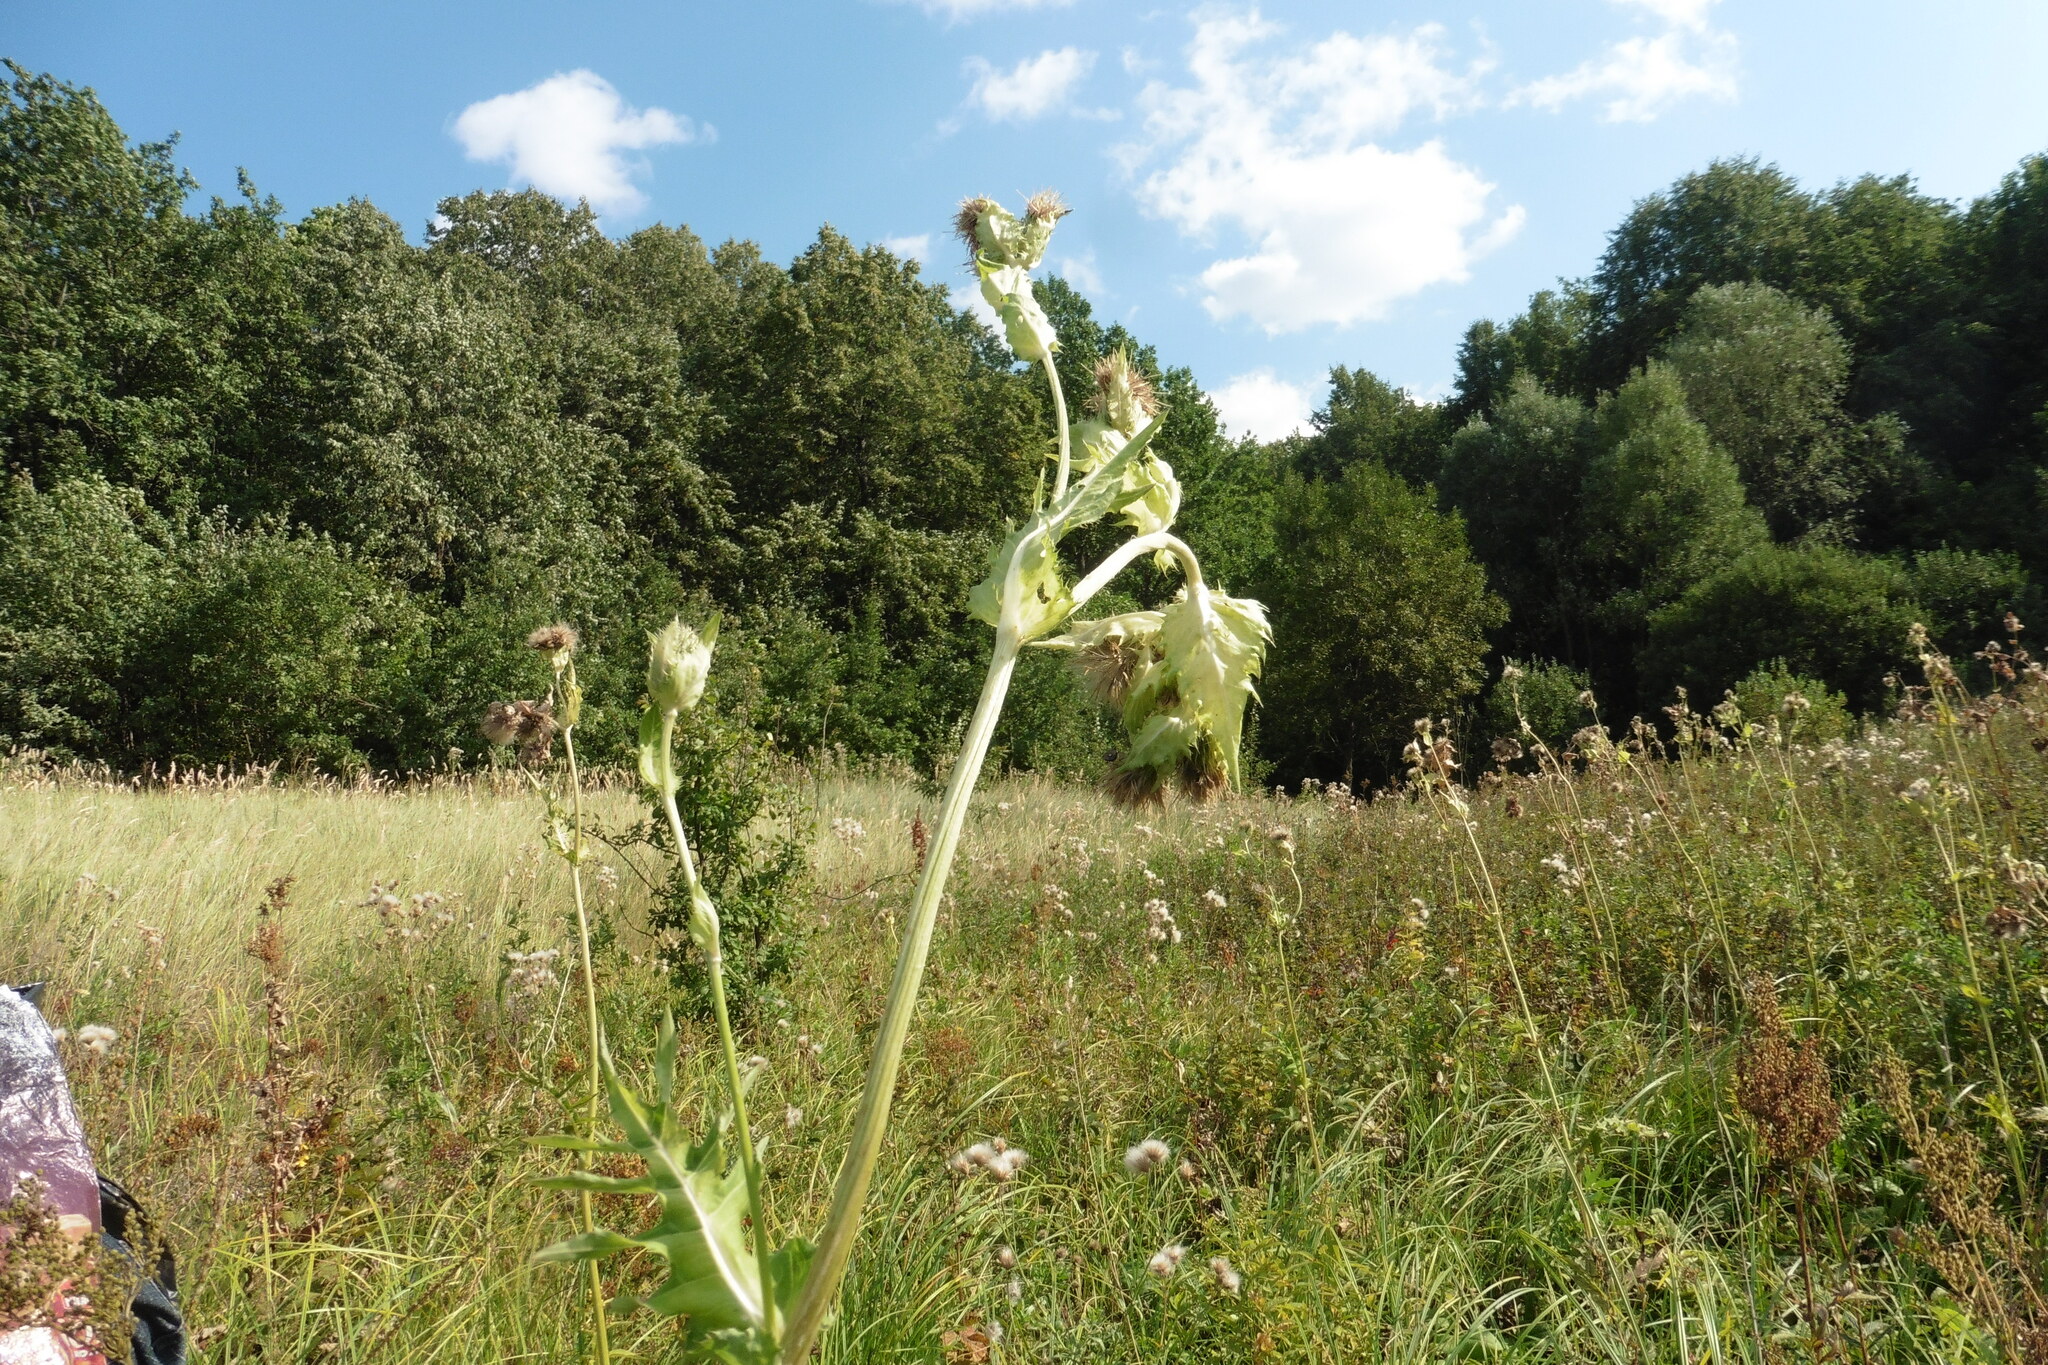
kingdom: Plantae
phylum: Tracheophyta
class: Magnoliopsida
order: Asterales
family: Asteraceae
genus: Cirsium
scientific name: Cirsium oleraceum
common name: Cabbage thistle
